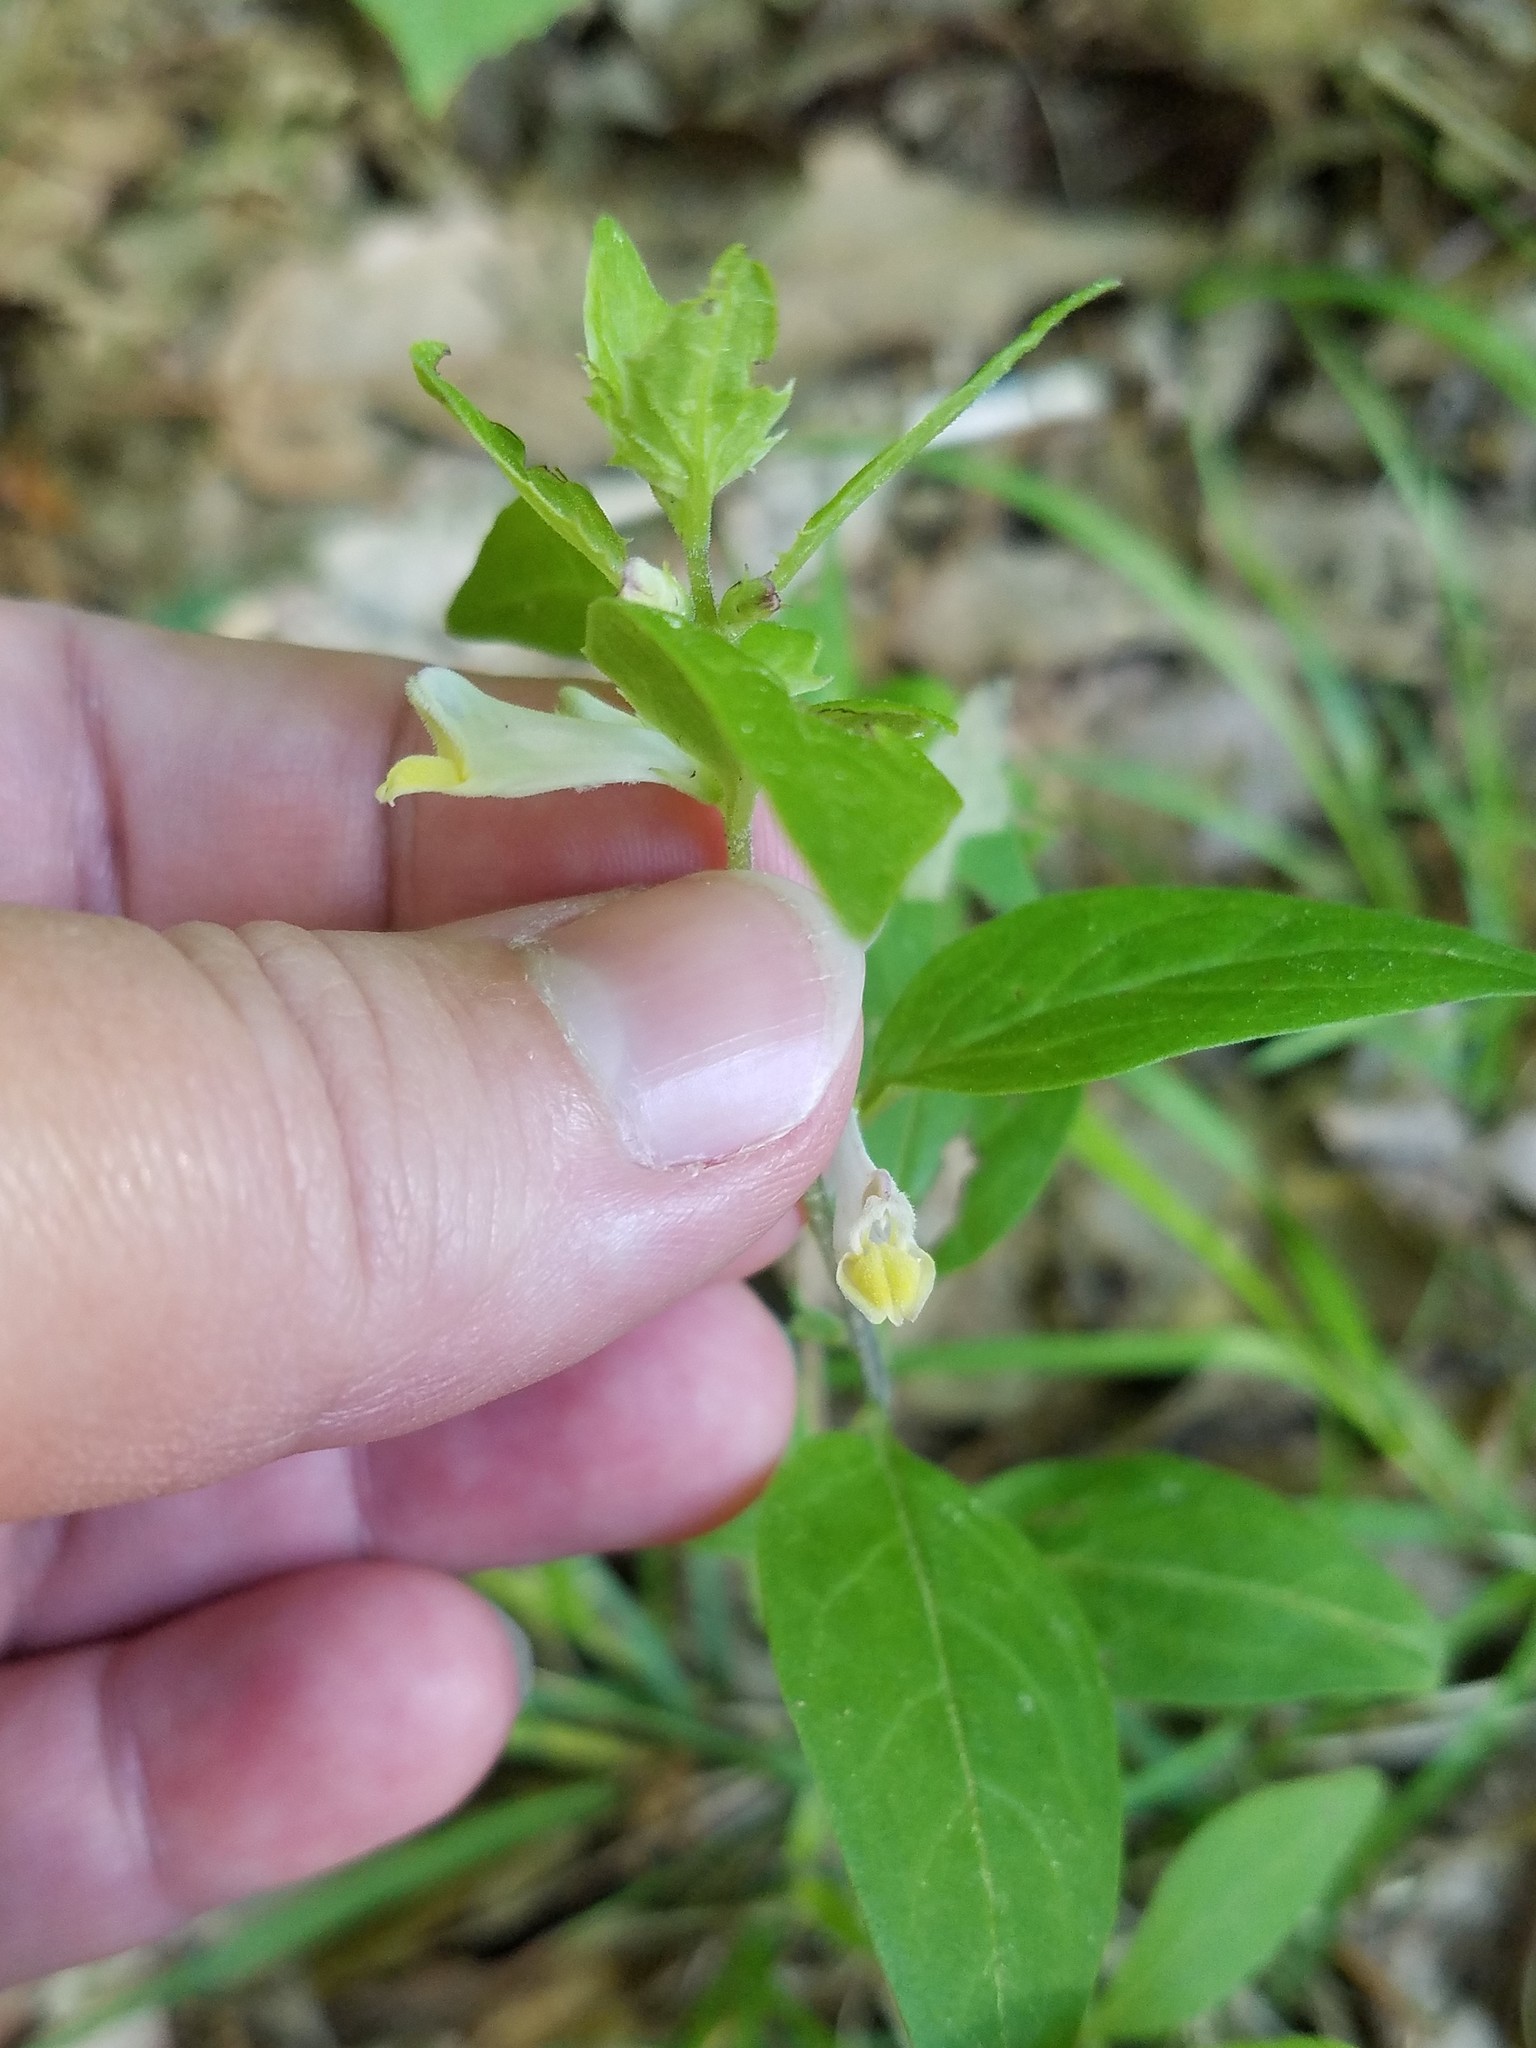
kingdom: Plantae
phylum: Tracheophyta
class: Magnoliopsida
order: Lamiales
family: Orobanchaceae
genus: Melampyrum
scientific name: Melampyrum lineare
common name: American cow-wheat
